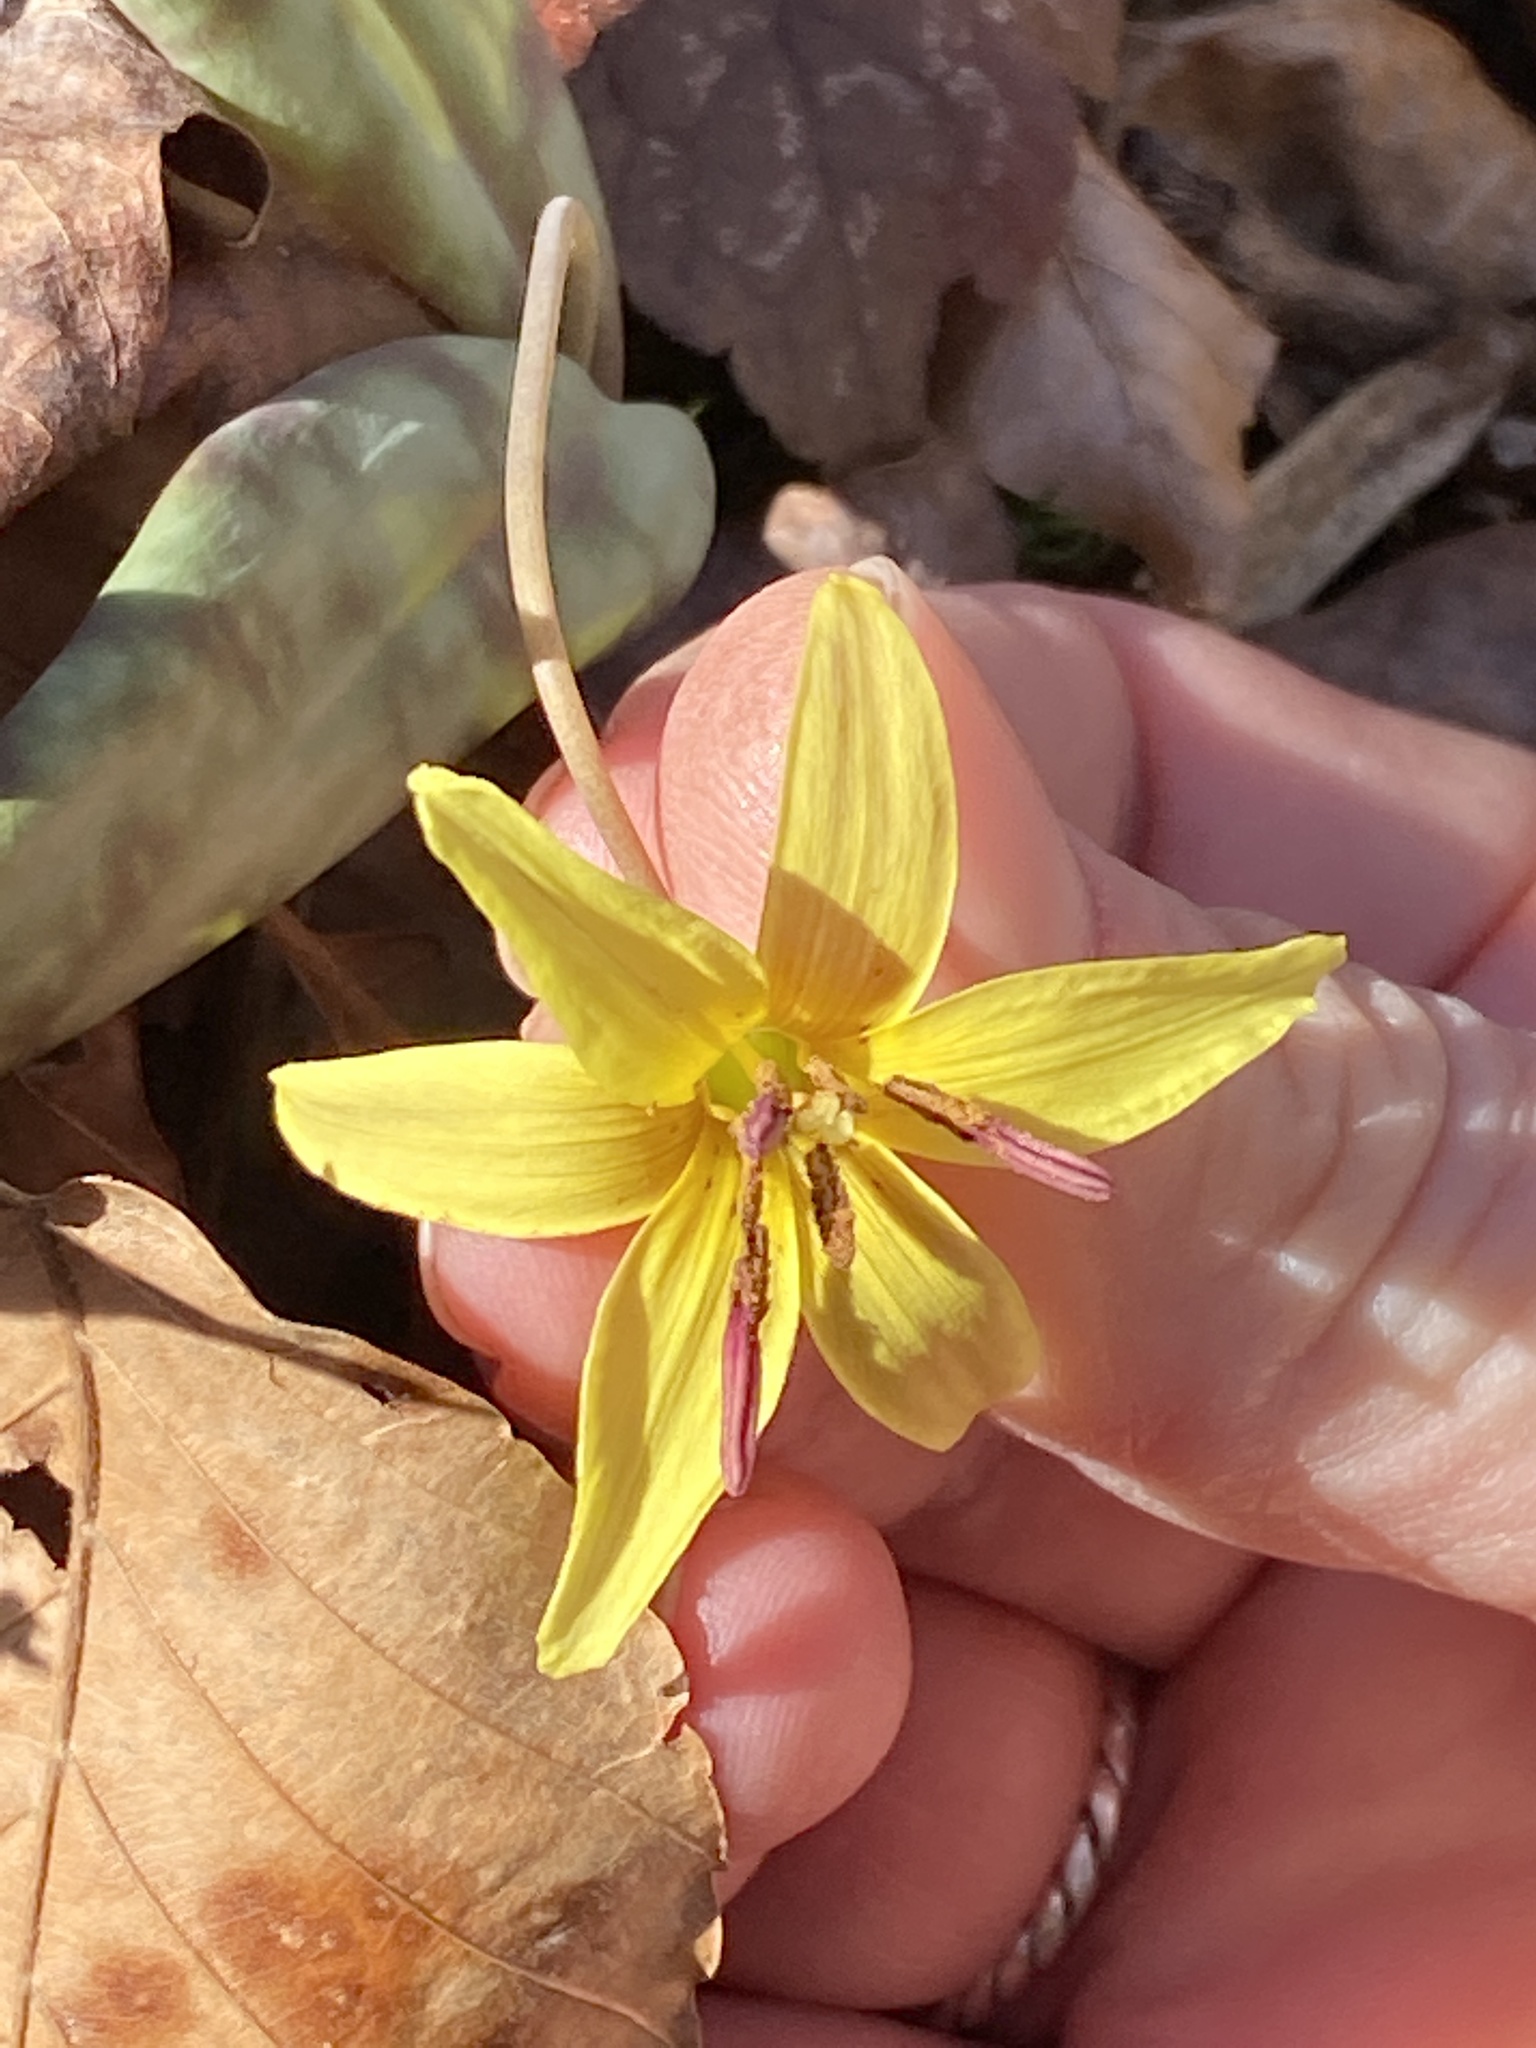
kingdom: Plantae
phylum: Tracheophyta
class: Liliopsida
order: Liliales
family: Liliaceae
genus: Erythronium
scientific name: Erythronium umbilicatum
